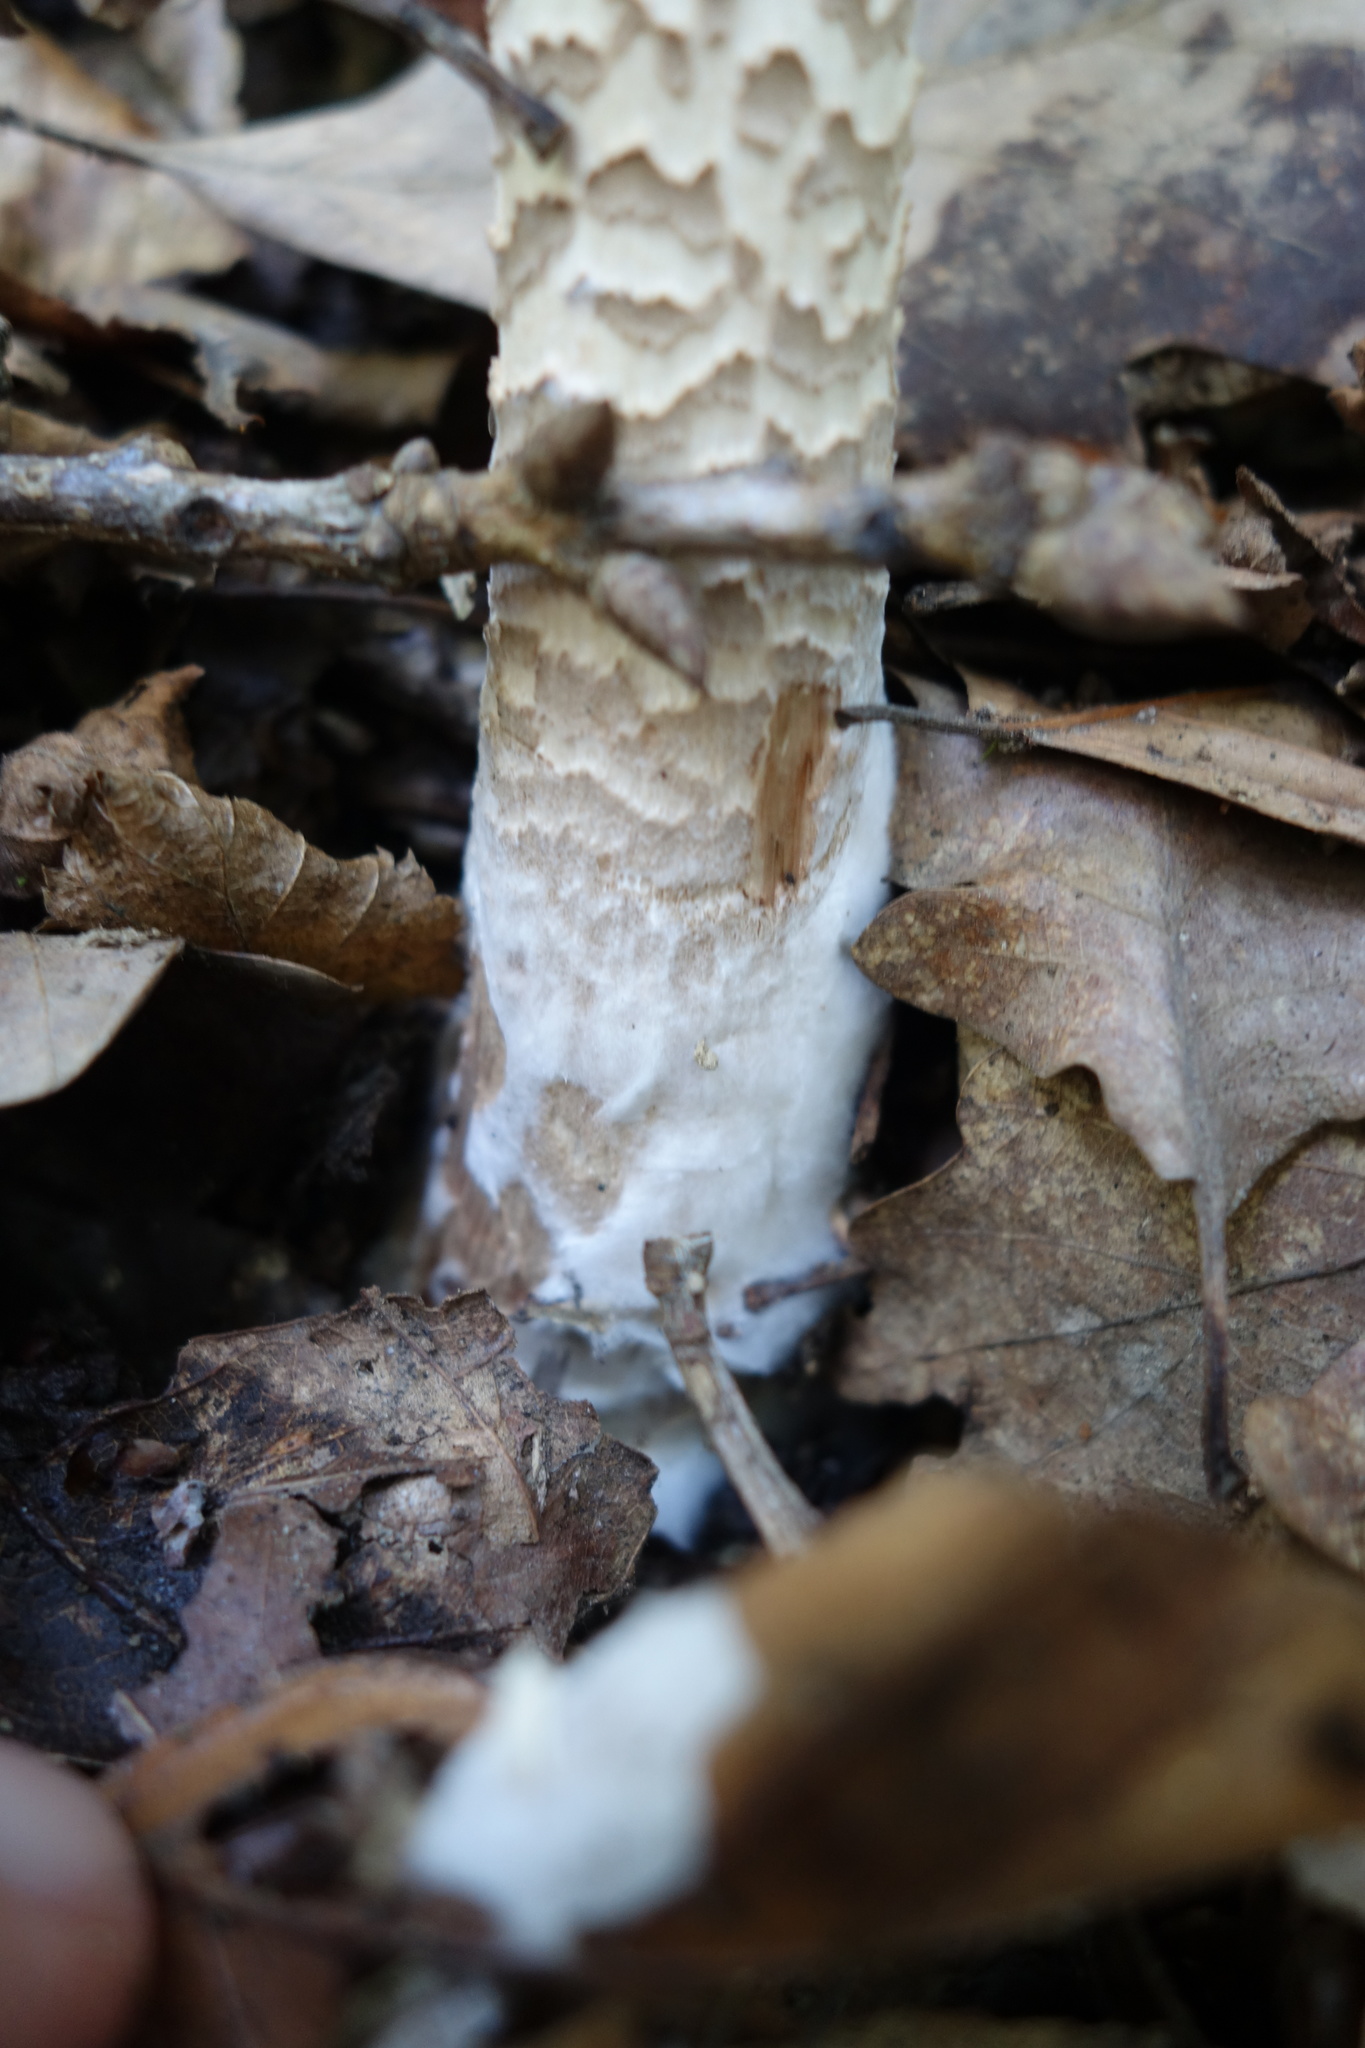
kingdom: Fungi
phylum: Basidiomycota
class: Agaricomycetes
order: Agaricales
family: Agaricaceae
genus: Macrolepiota
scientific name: Macrolepiota procera
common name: Parasol
